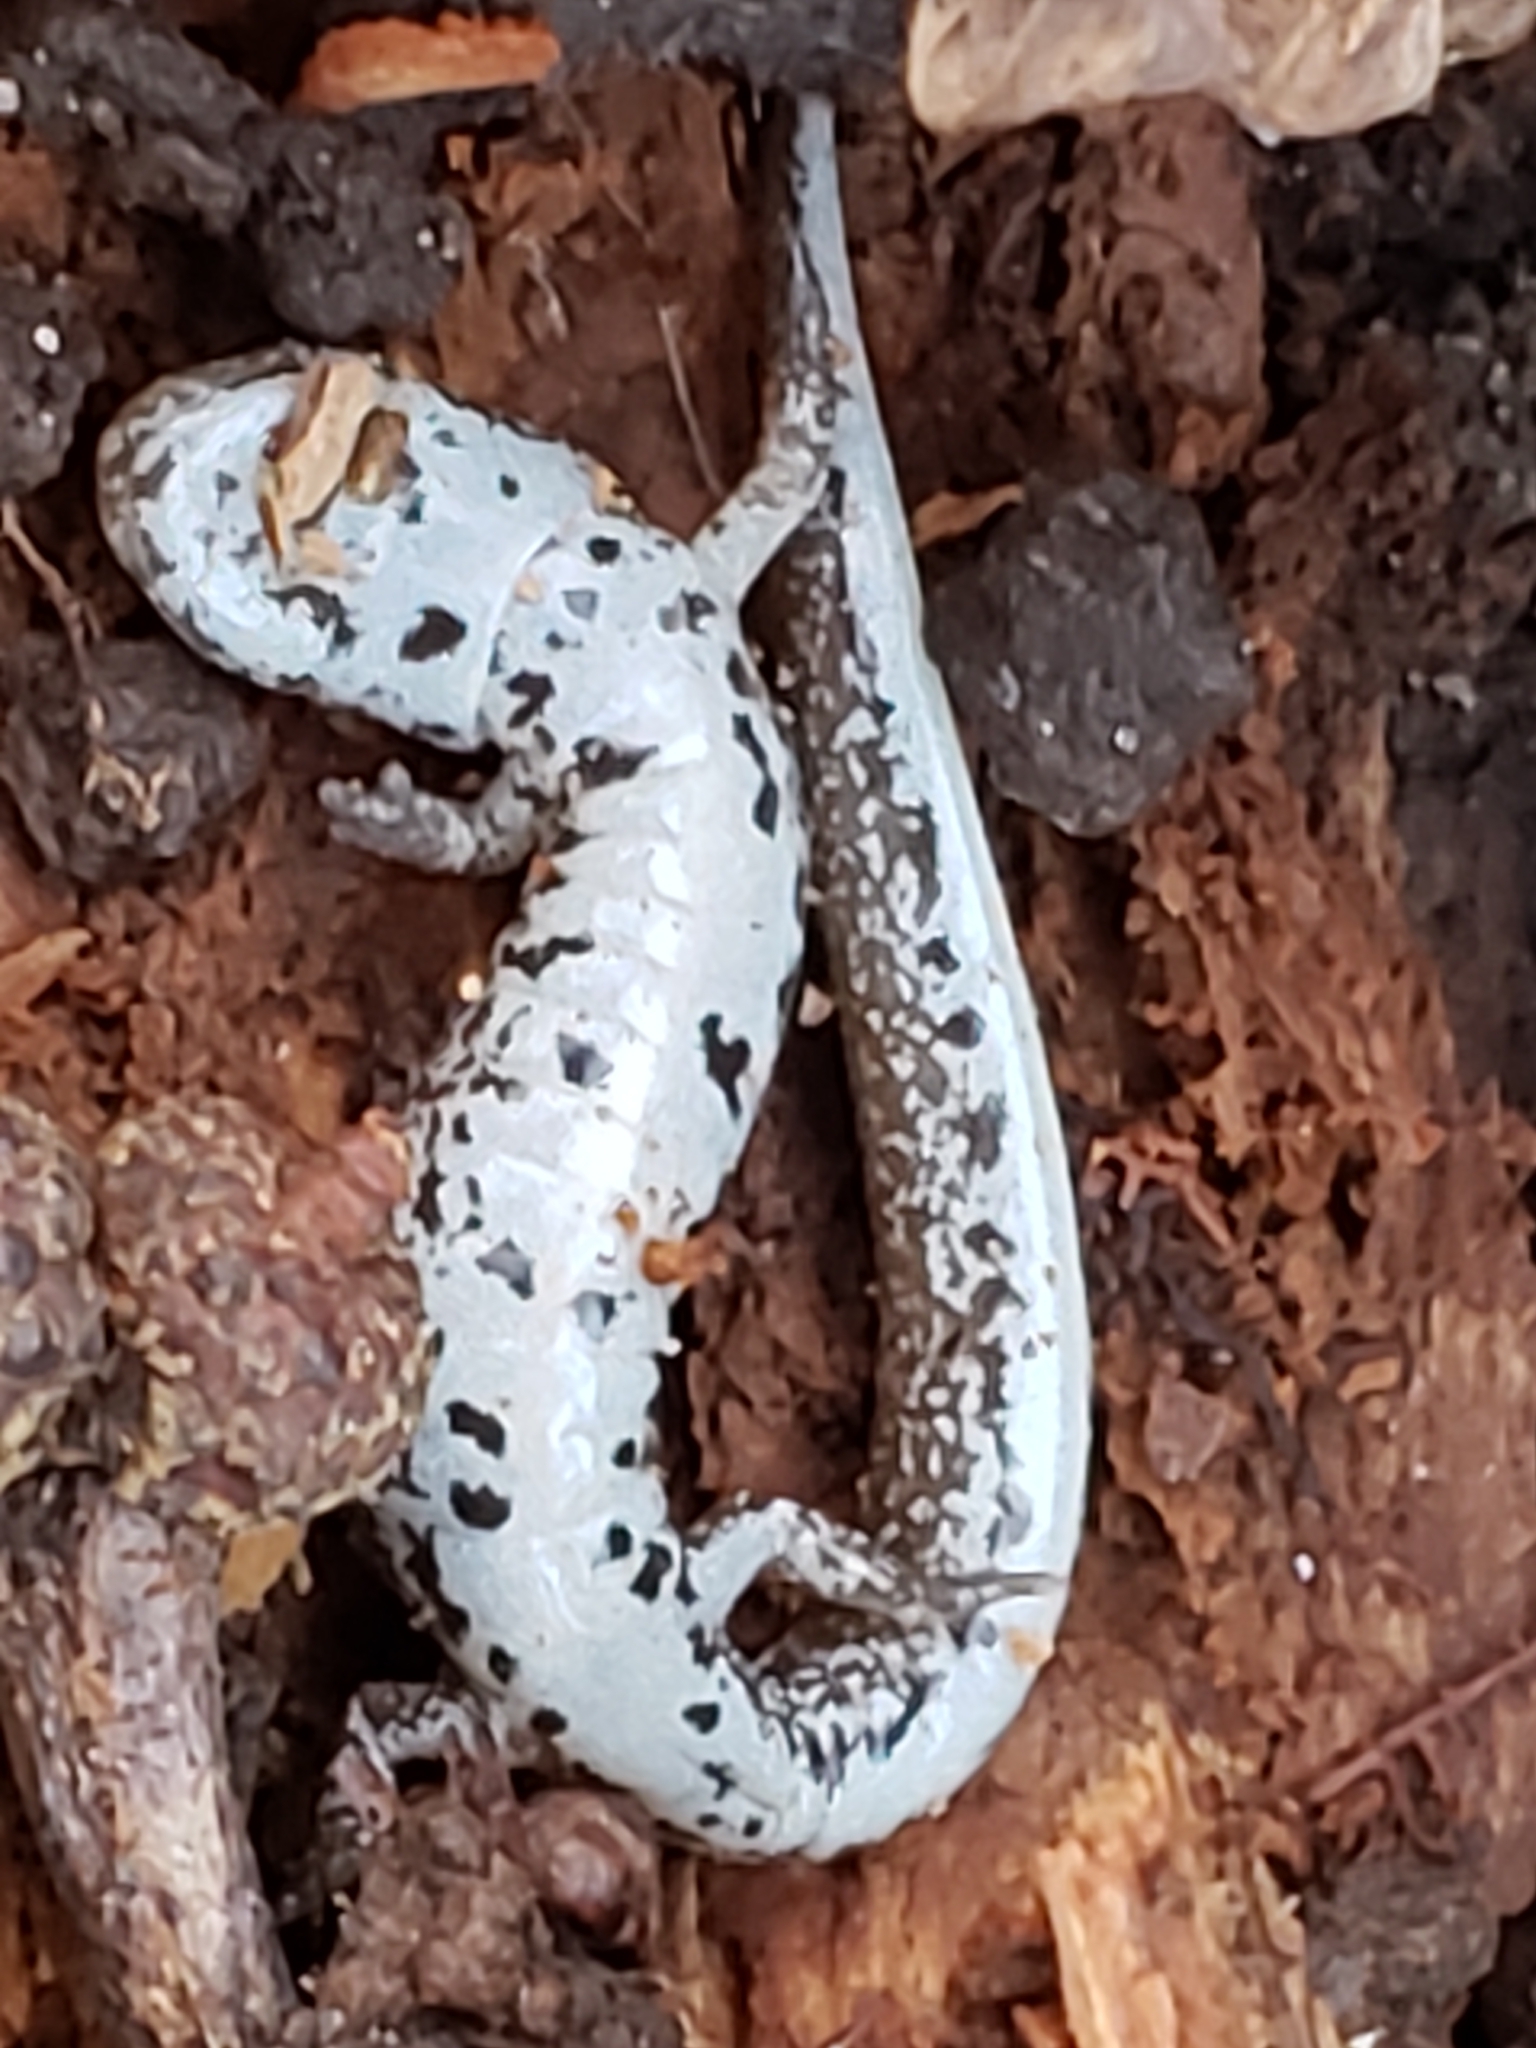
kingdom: Animalia
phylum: Chordata
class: Amphibia
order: Caudata
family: Plethodontidae
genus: Hemidactylium
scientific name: Hemidactylium scutatum
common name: Four-toed salamander
